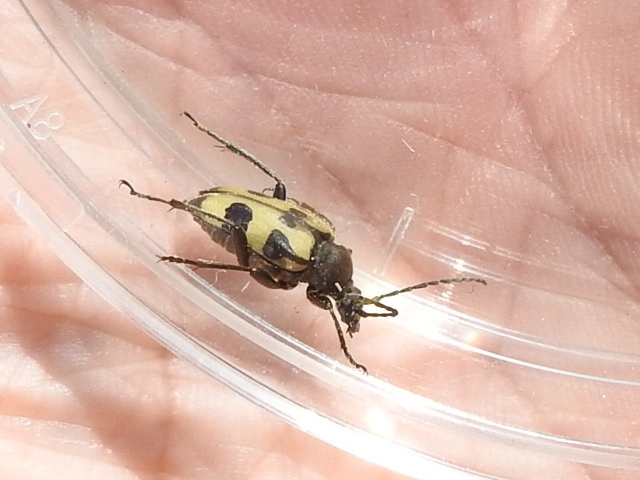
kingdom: Animalia
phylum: Arthropoda
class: Insecta
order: Coleoptera
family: Cerambycidae
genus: Judolia
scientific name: Judolia instabilis
